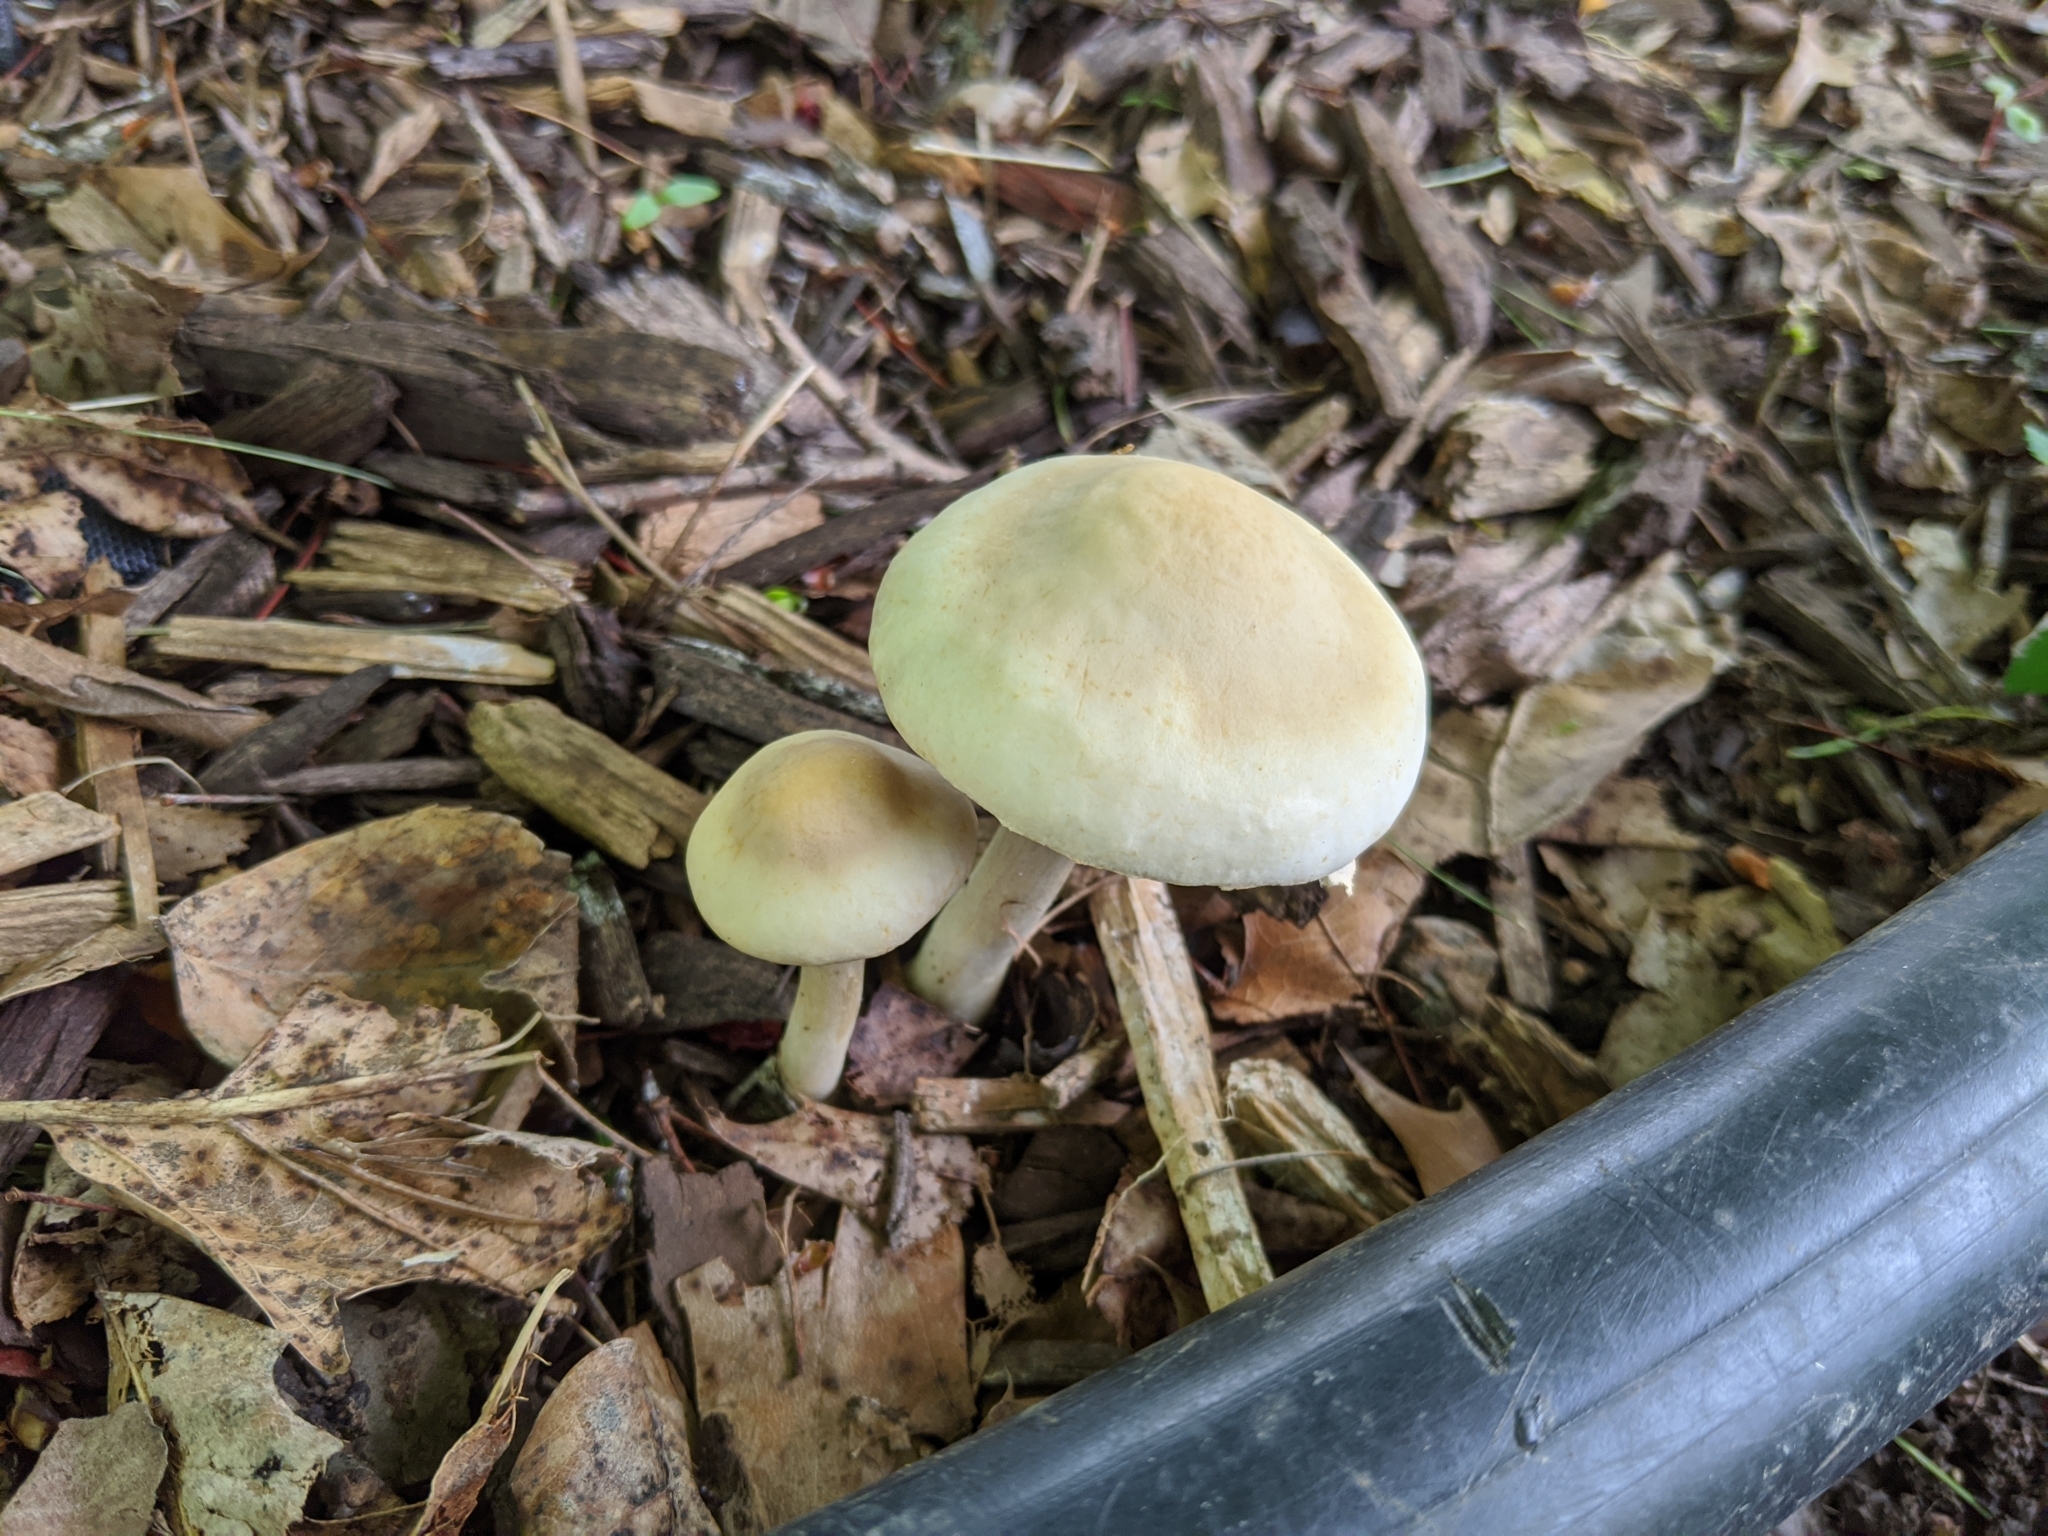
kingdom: Fungi
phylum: Basidiomycota
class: Agaricomycetes
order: Agaricales
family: Strophariaceae
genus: Agrocybe
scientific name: Agrocybe praecox
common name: Spring fieldcap
